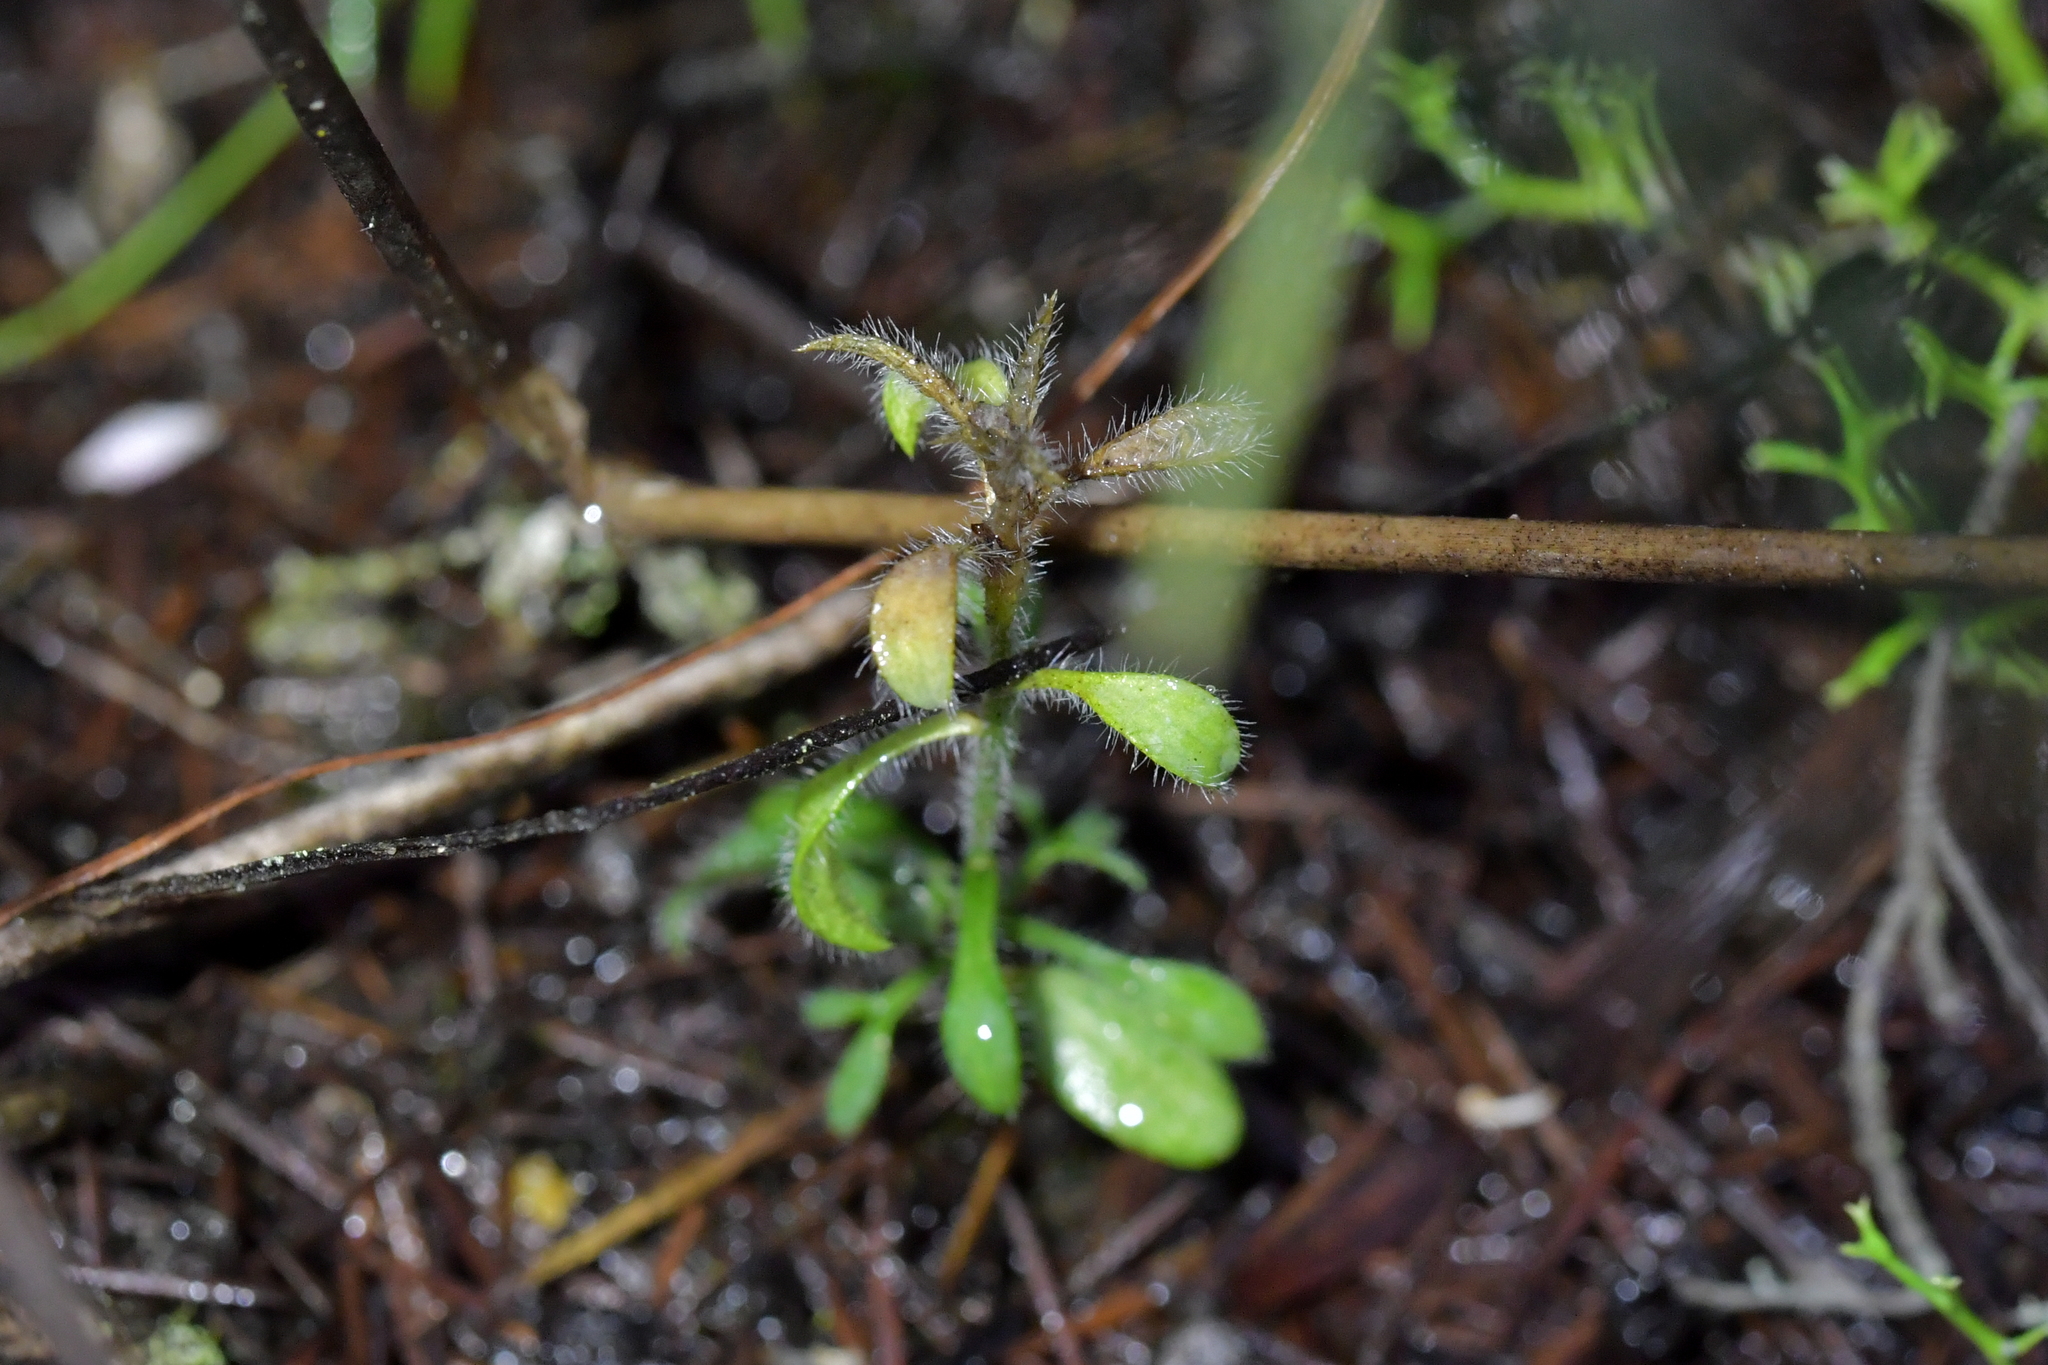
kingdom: Plantae
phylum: Tracheophyta
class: Magnoliopsida
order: Fabales
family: Fabaceae
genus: Ulex
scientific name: Ulex europaeus
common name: Common gorse
